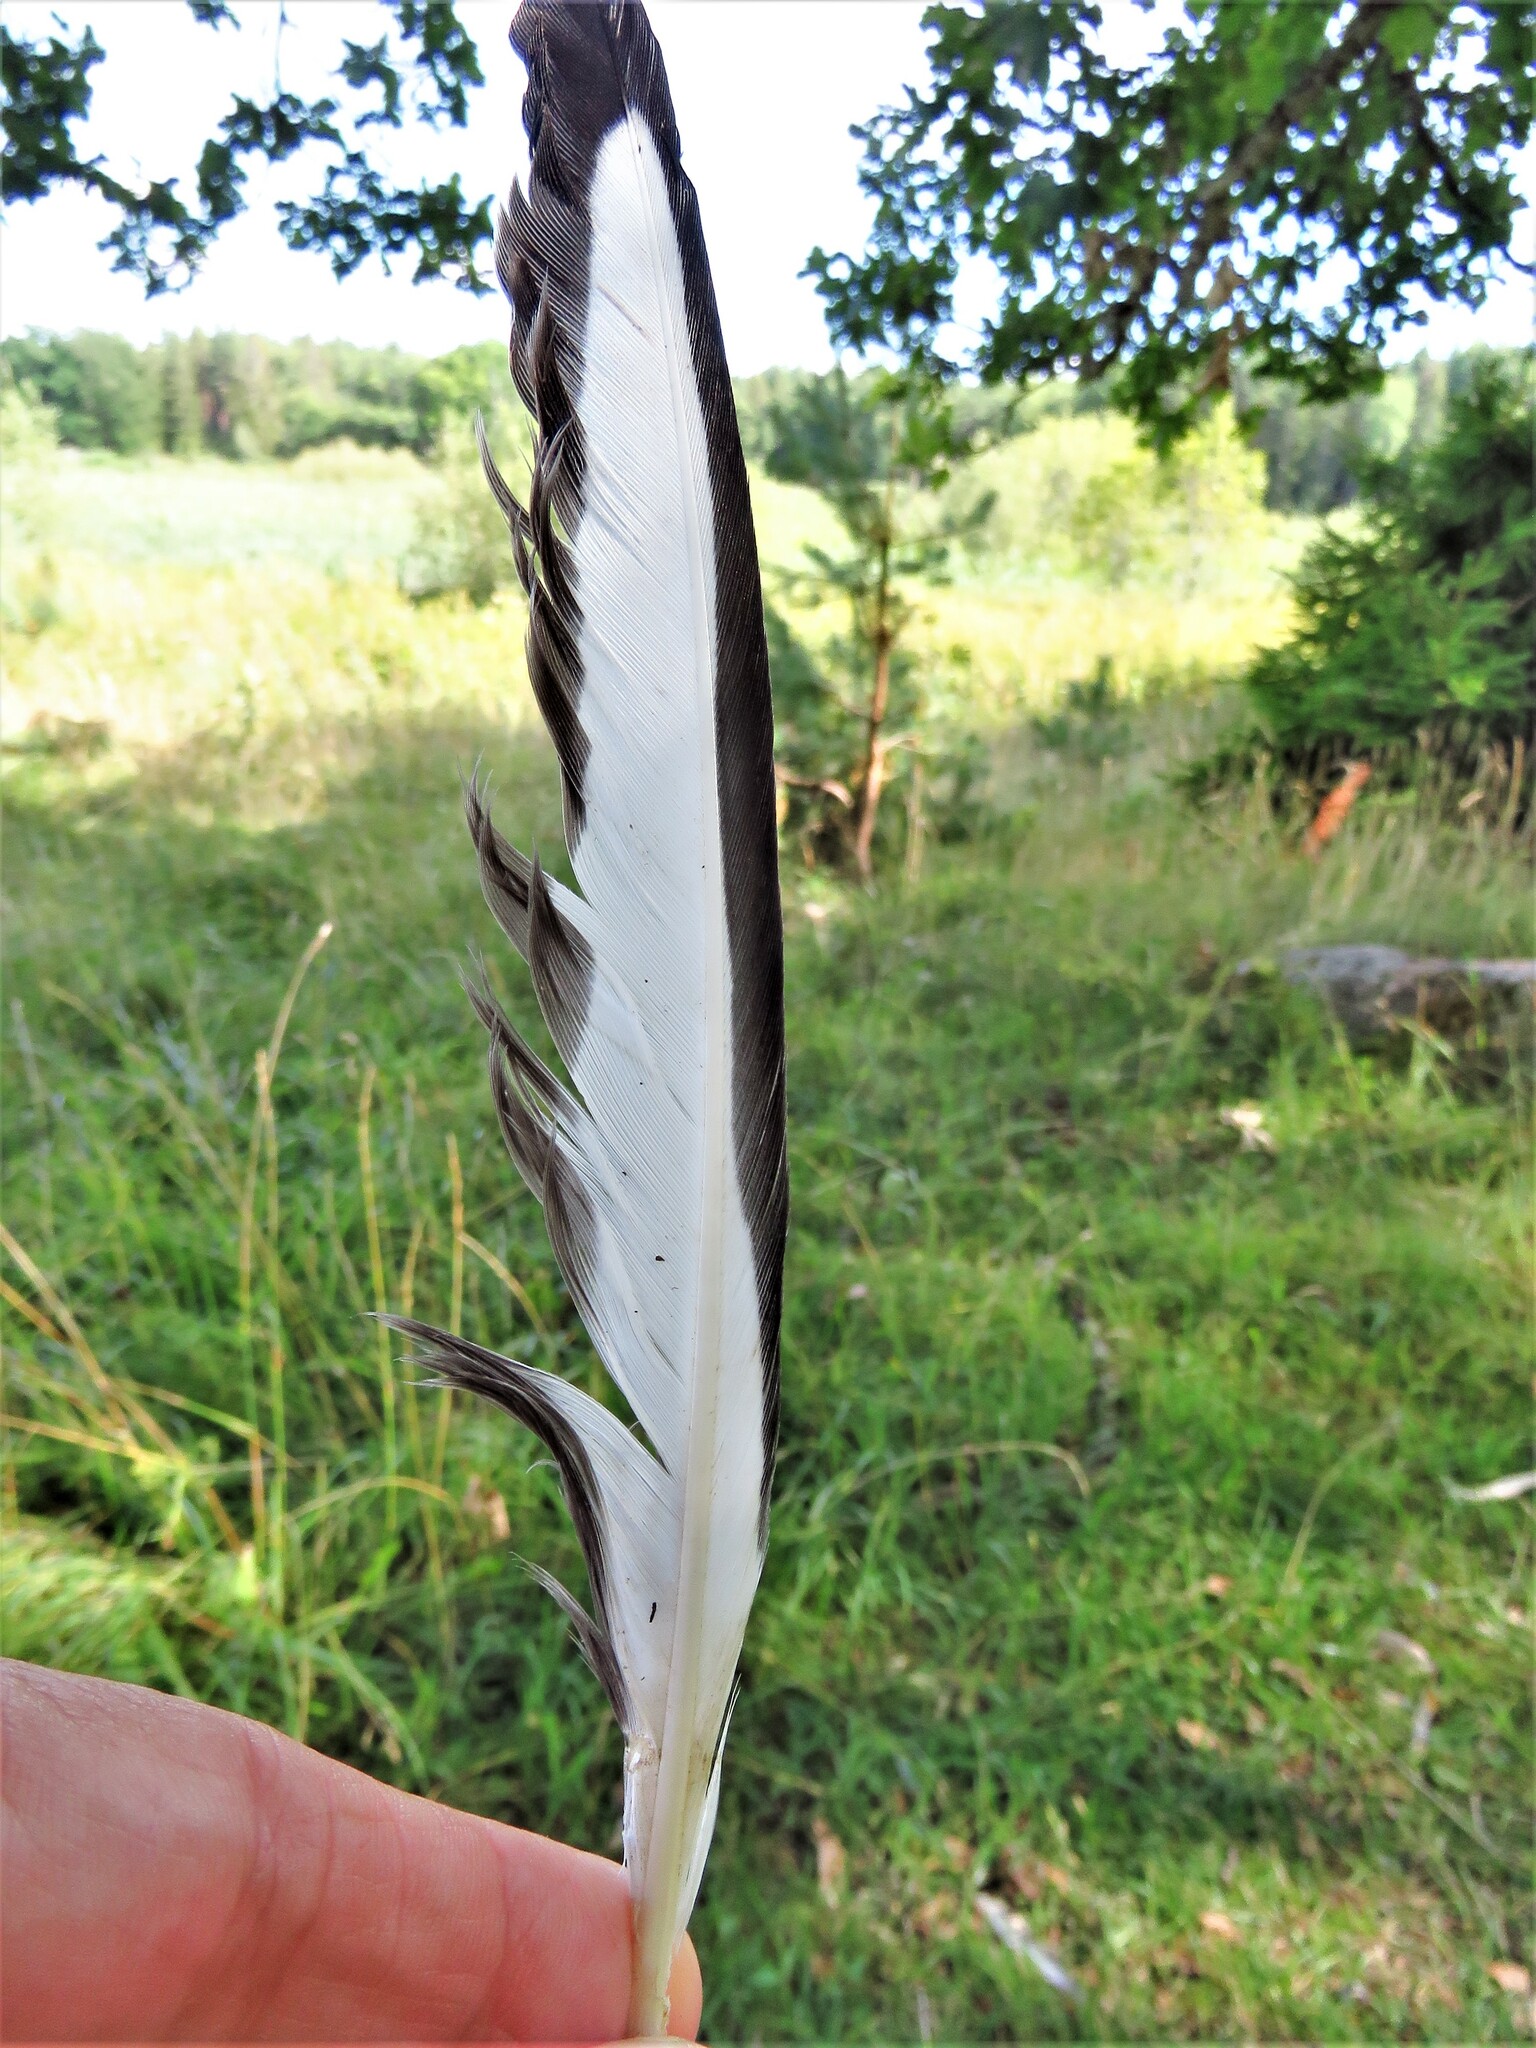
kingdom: Animalia
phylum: Chordata
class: Aves
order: Passeriformes
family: Corvidae
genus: Pica
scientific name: Pica pica
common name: Eurasian magpie
